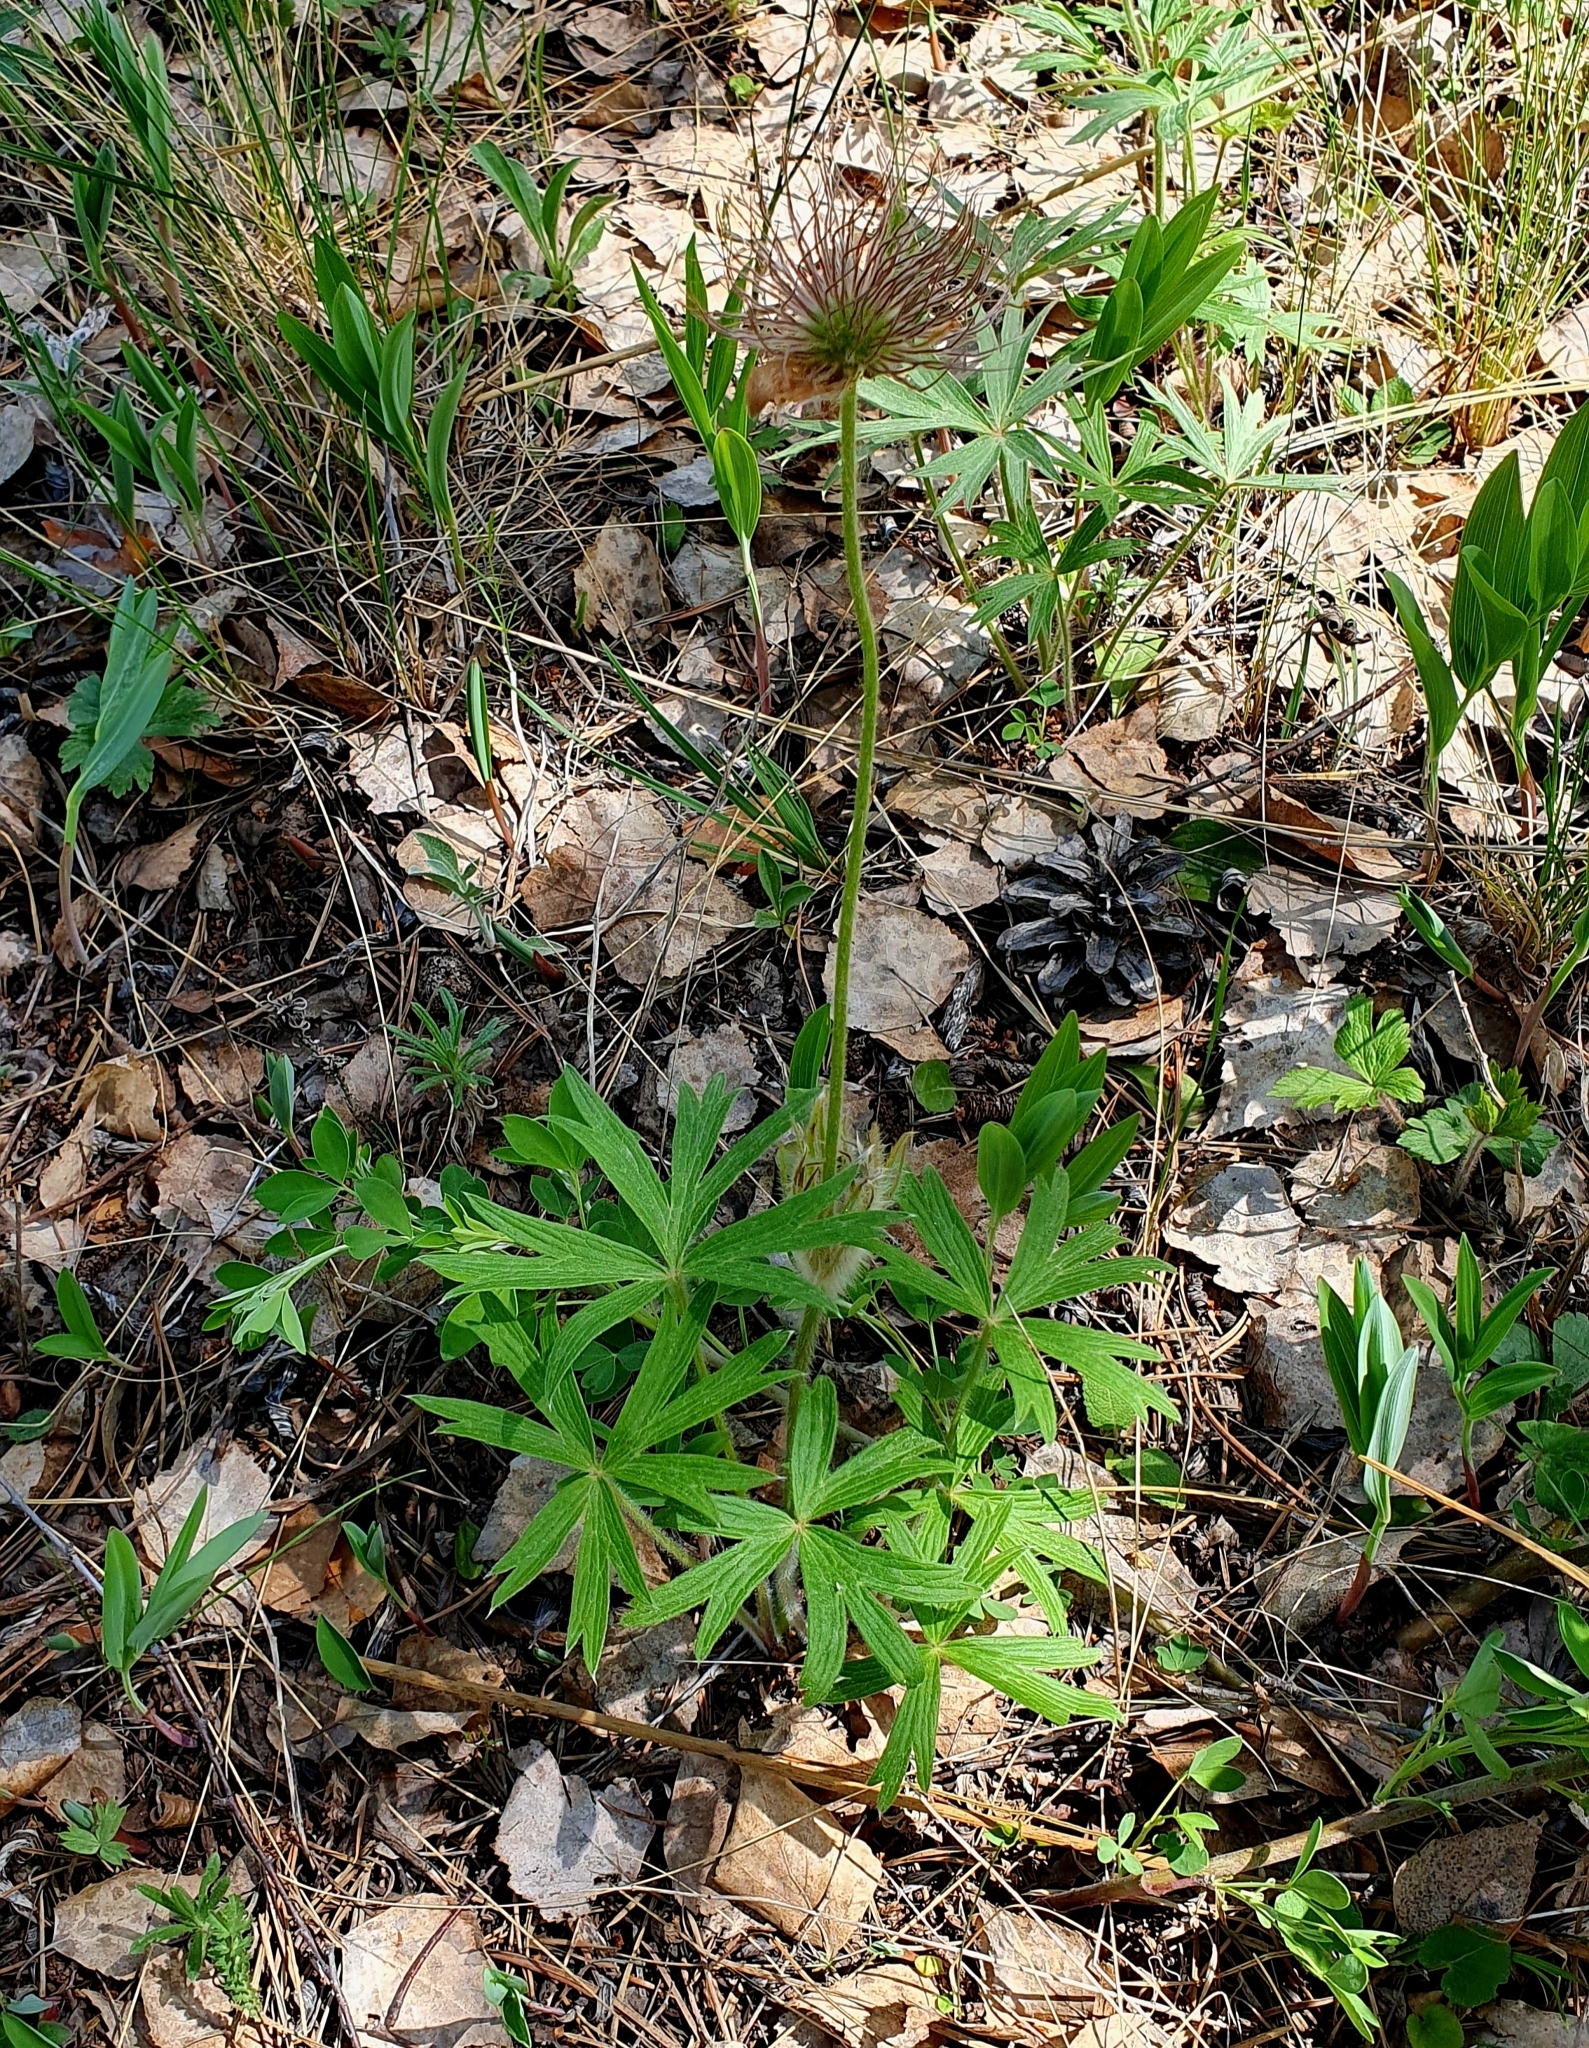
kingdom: Plantae
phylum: Tracheophyta
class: Magnoliopsida
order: Ranunculales
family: Ranunculaceae
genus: Pulsatilla
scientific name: Pulsatilla patens
